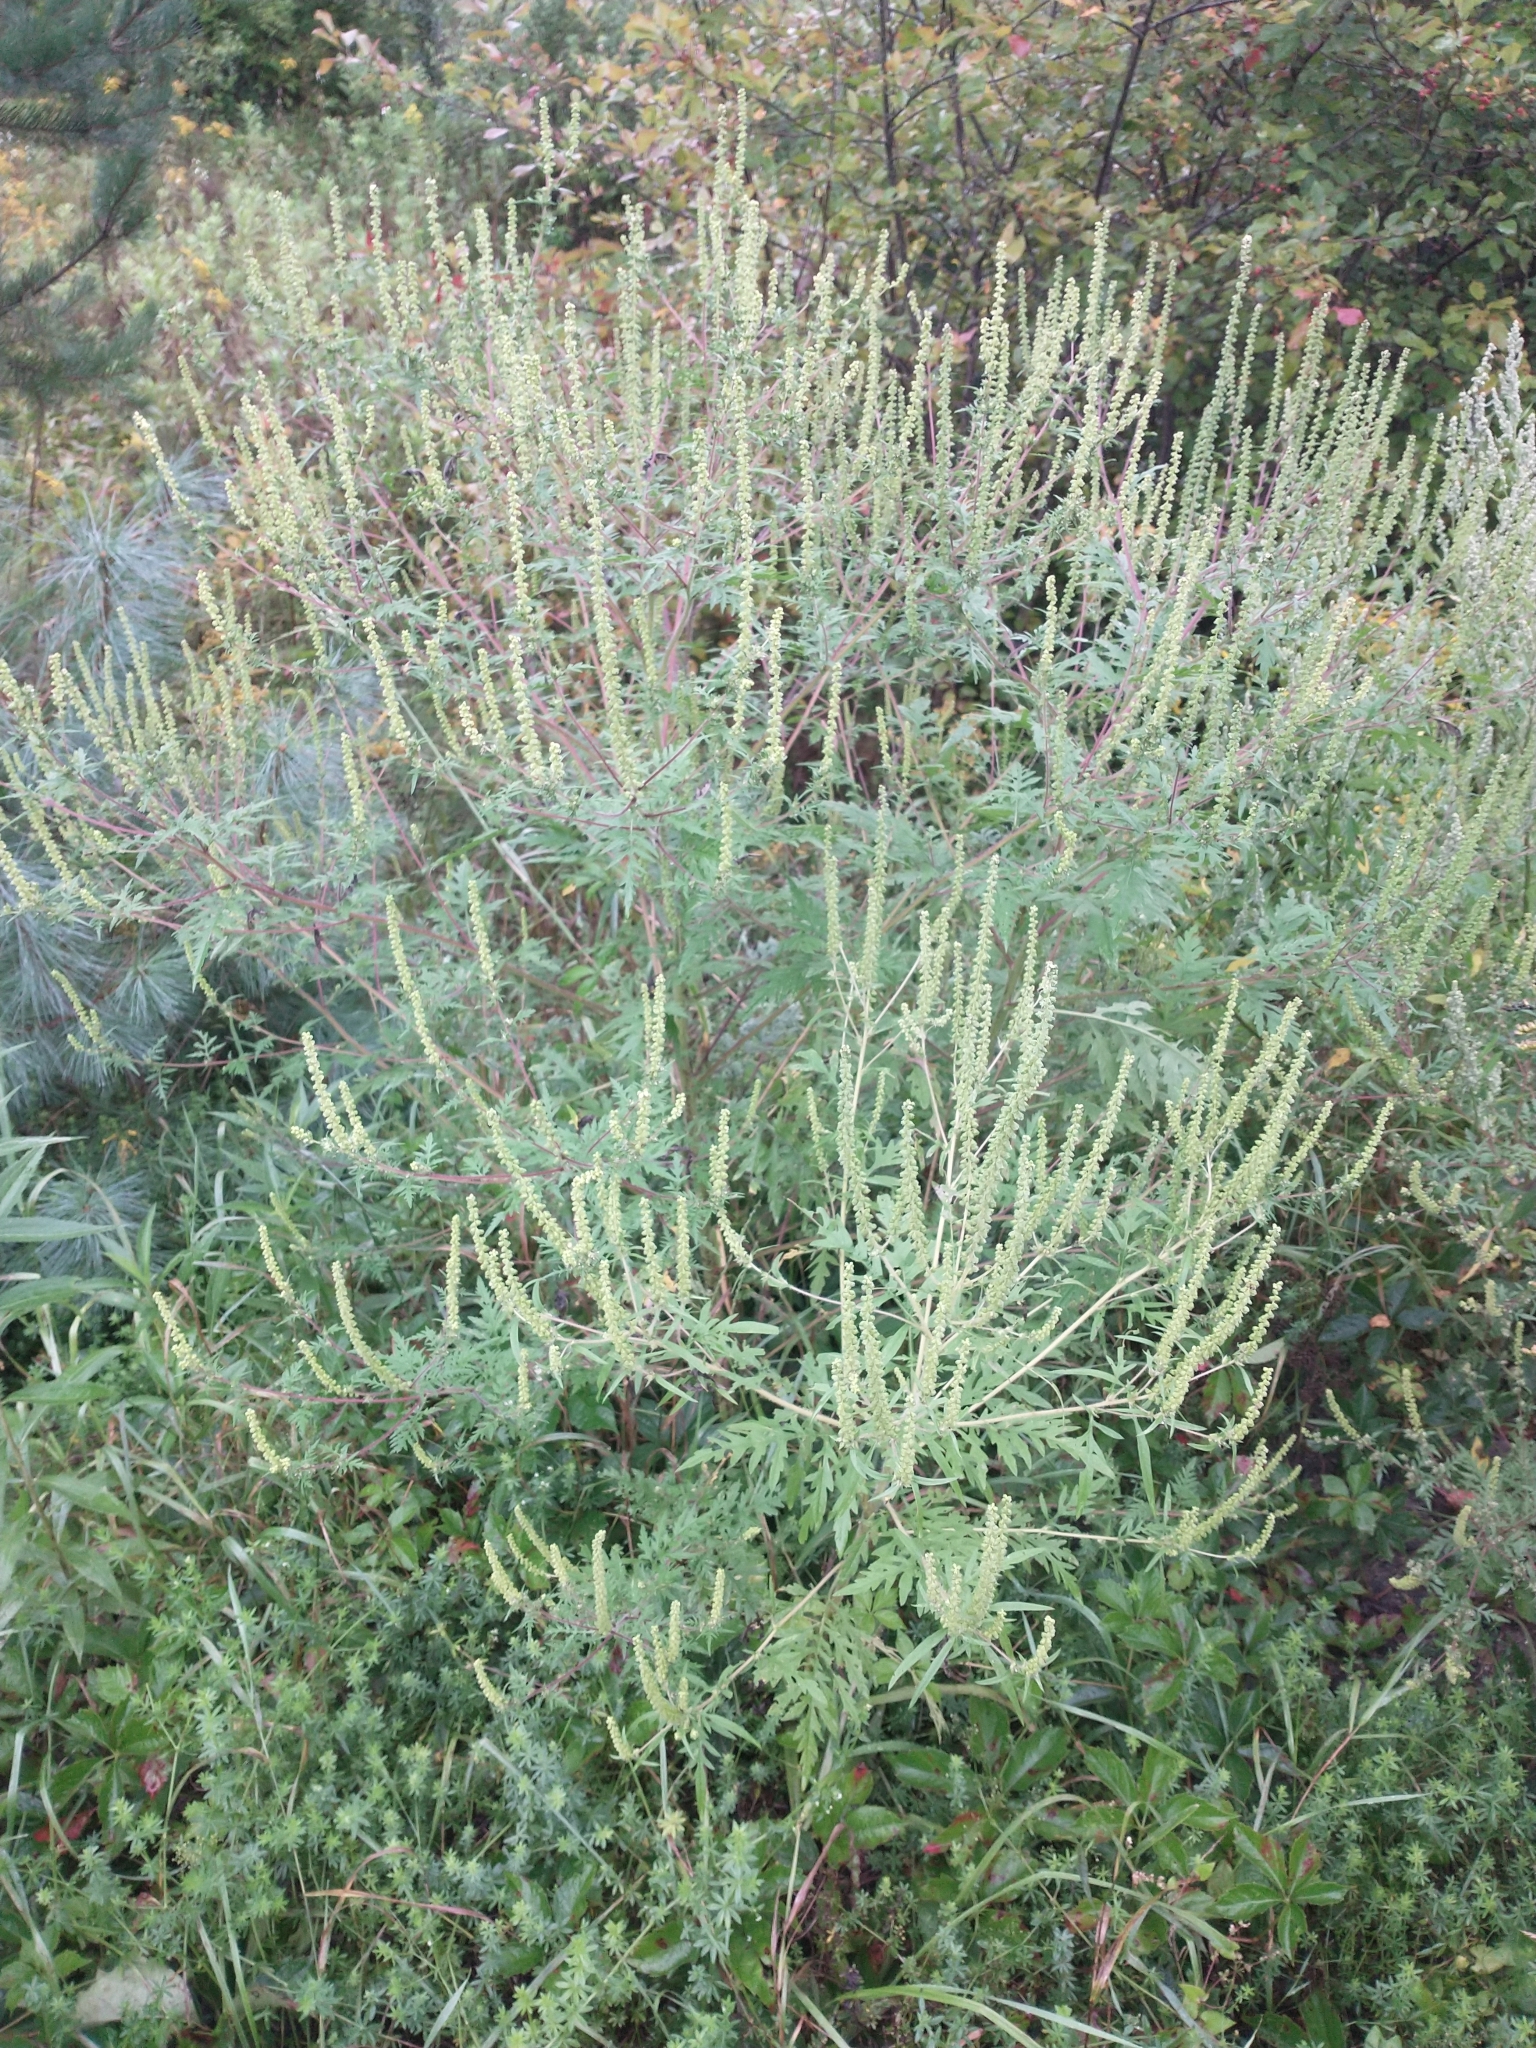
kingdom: Plantae
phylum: Tracheophyta
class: Magnoliopsida
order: Asterales
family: Asteraceae
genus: Ambrosia
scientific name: Ambrosia artemisiifolia
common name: Annual ragweed
